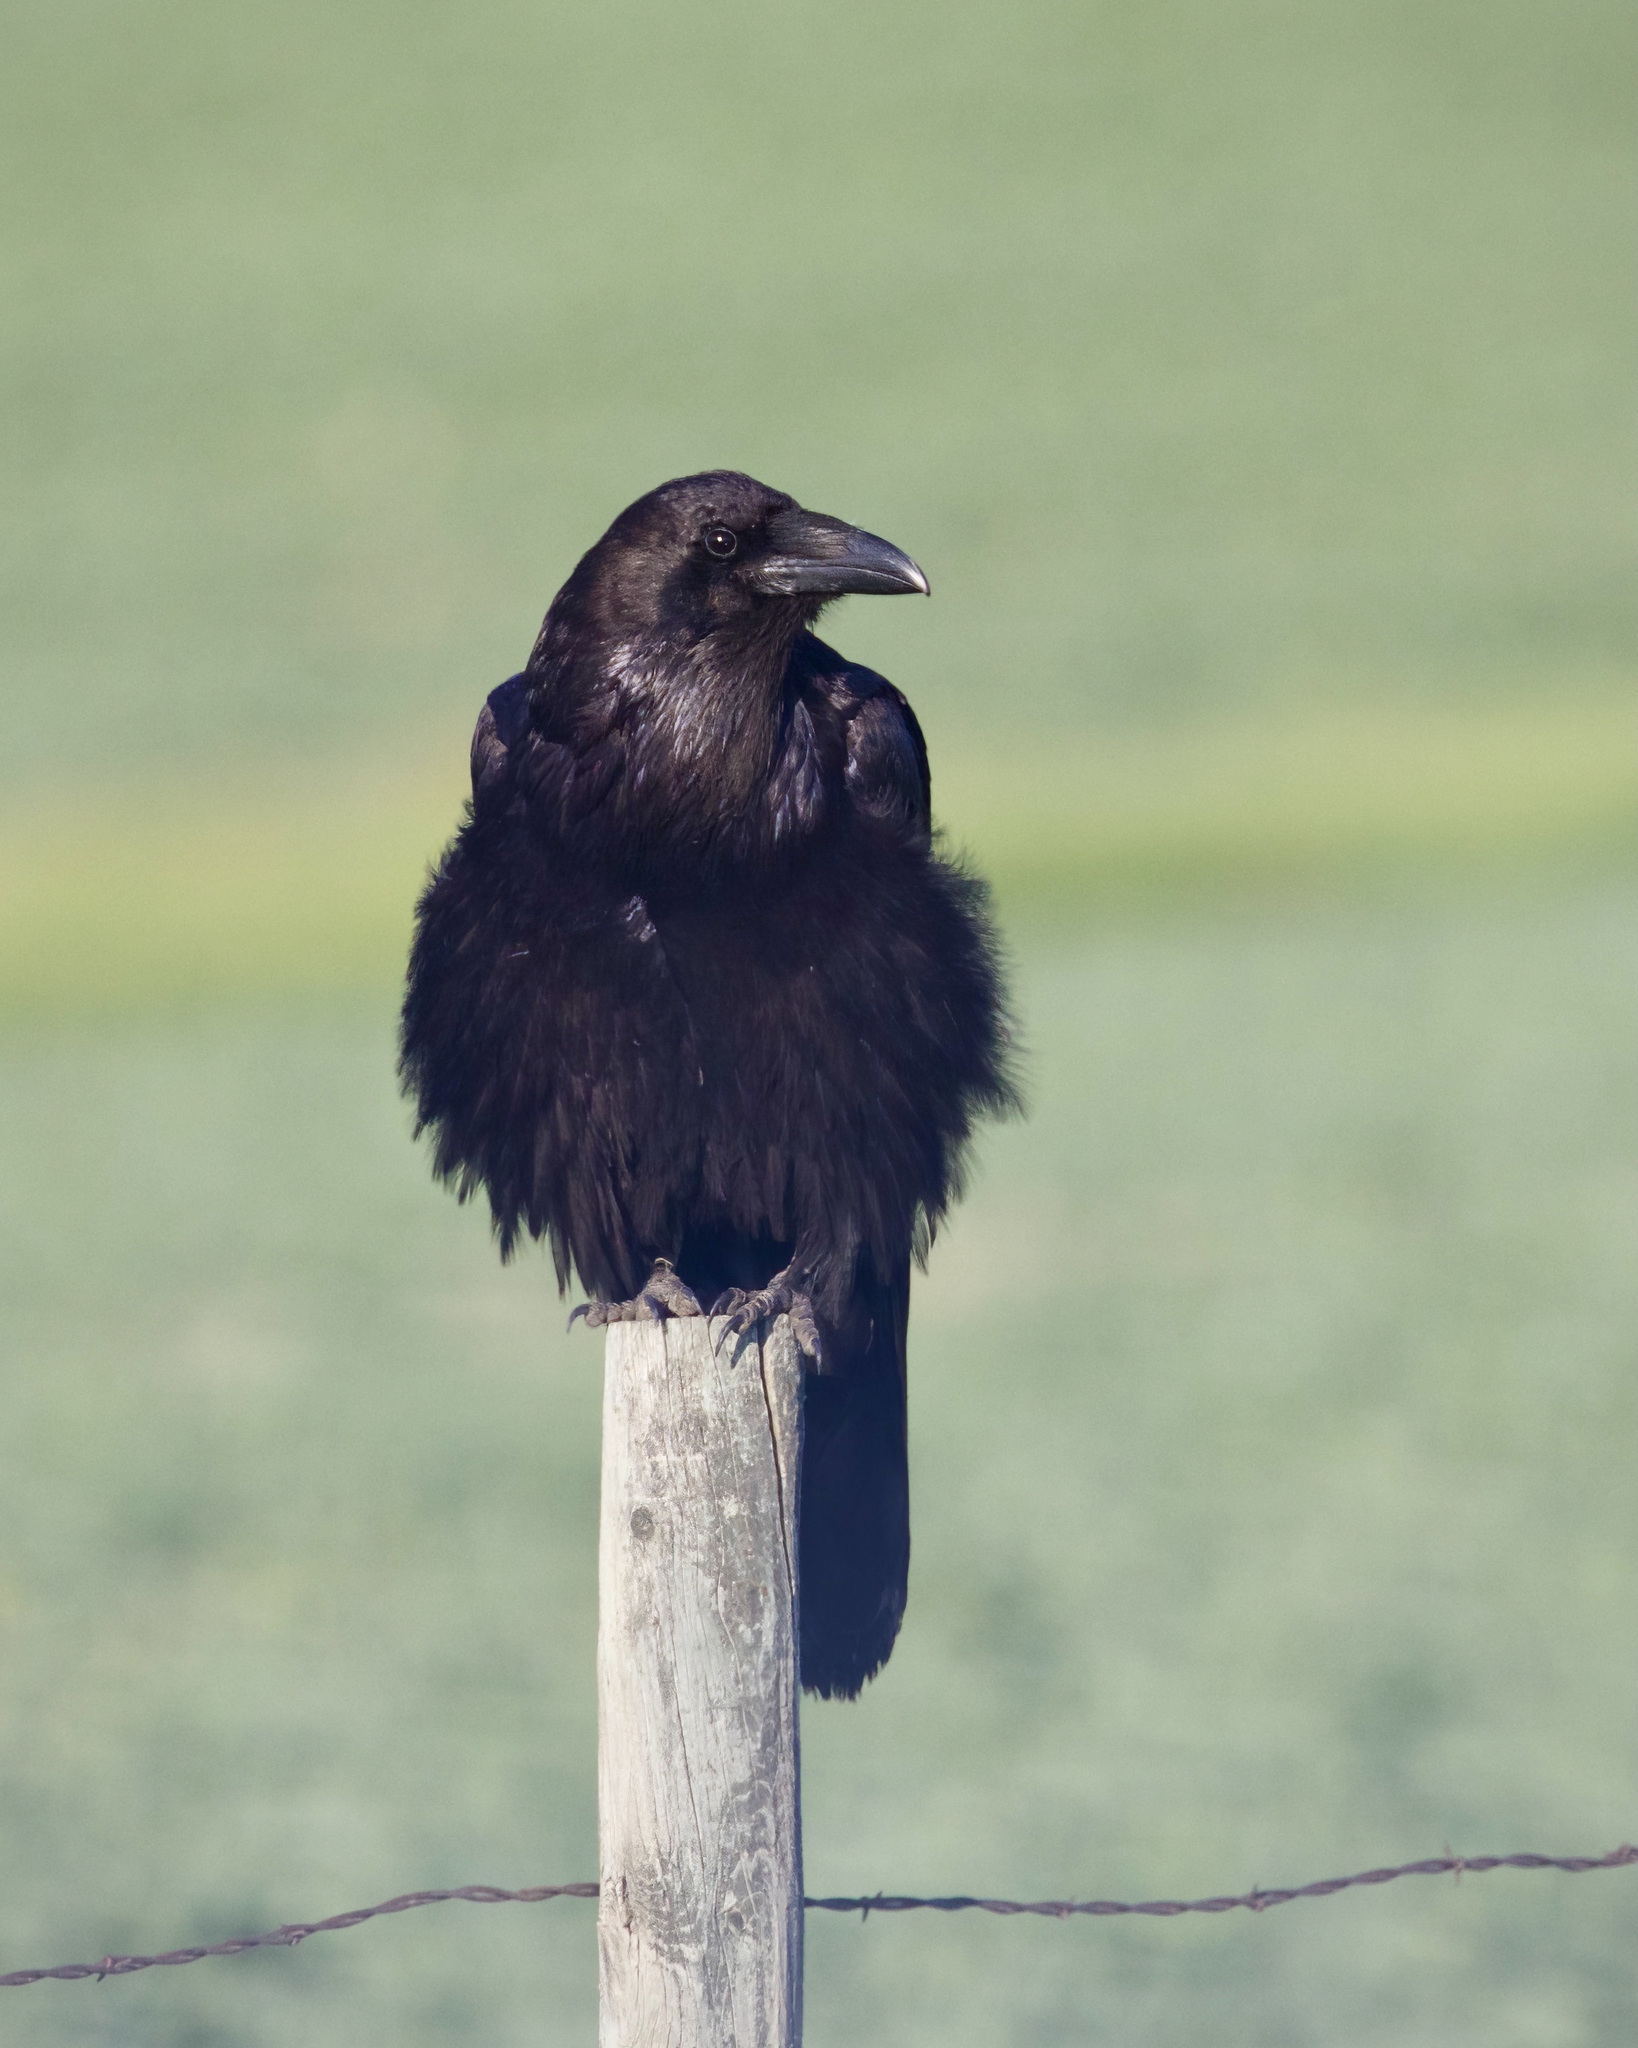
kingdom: Animalia
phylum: Chordata
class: Aves
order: Passeriformes
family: Corvidae
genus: Corvus
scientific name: Corvus corax
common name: Common raven
